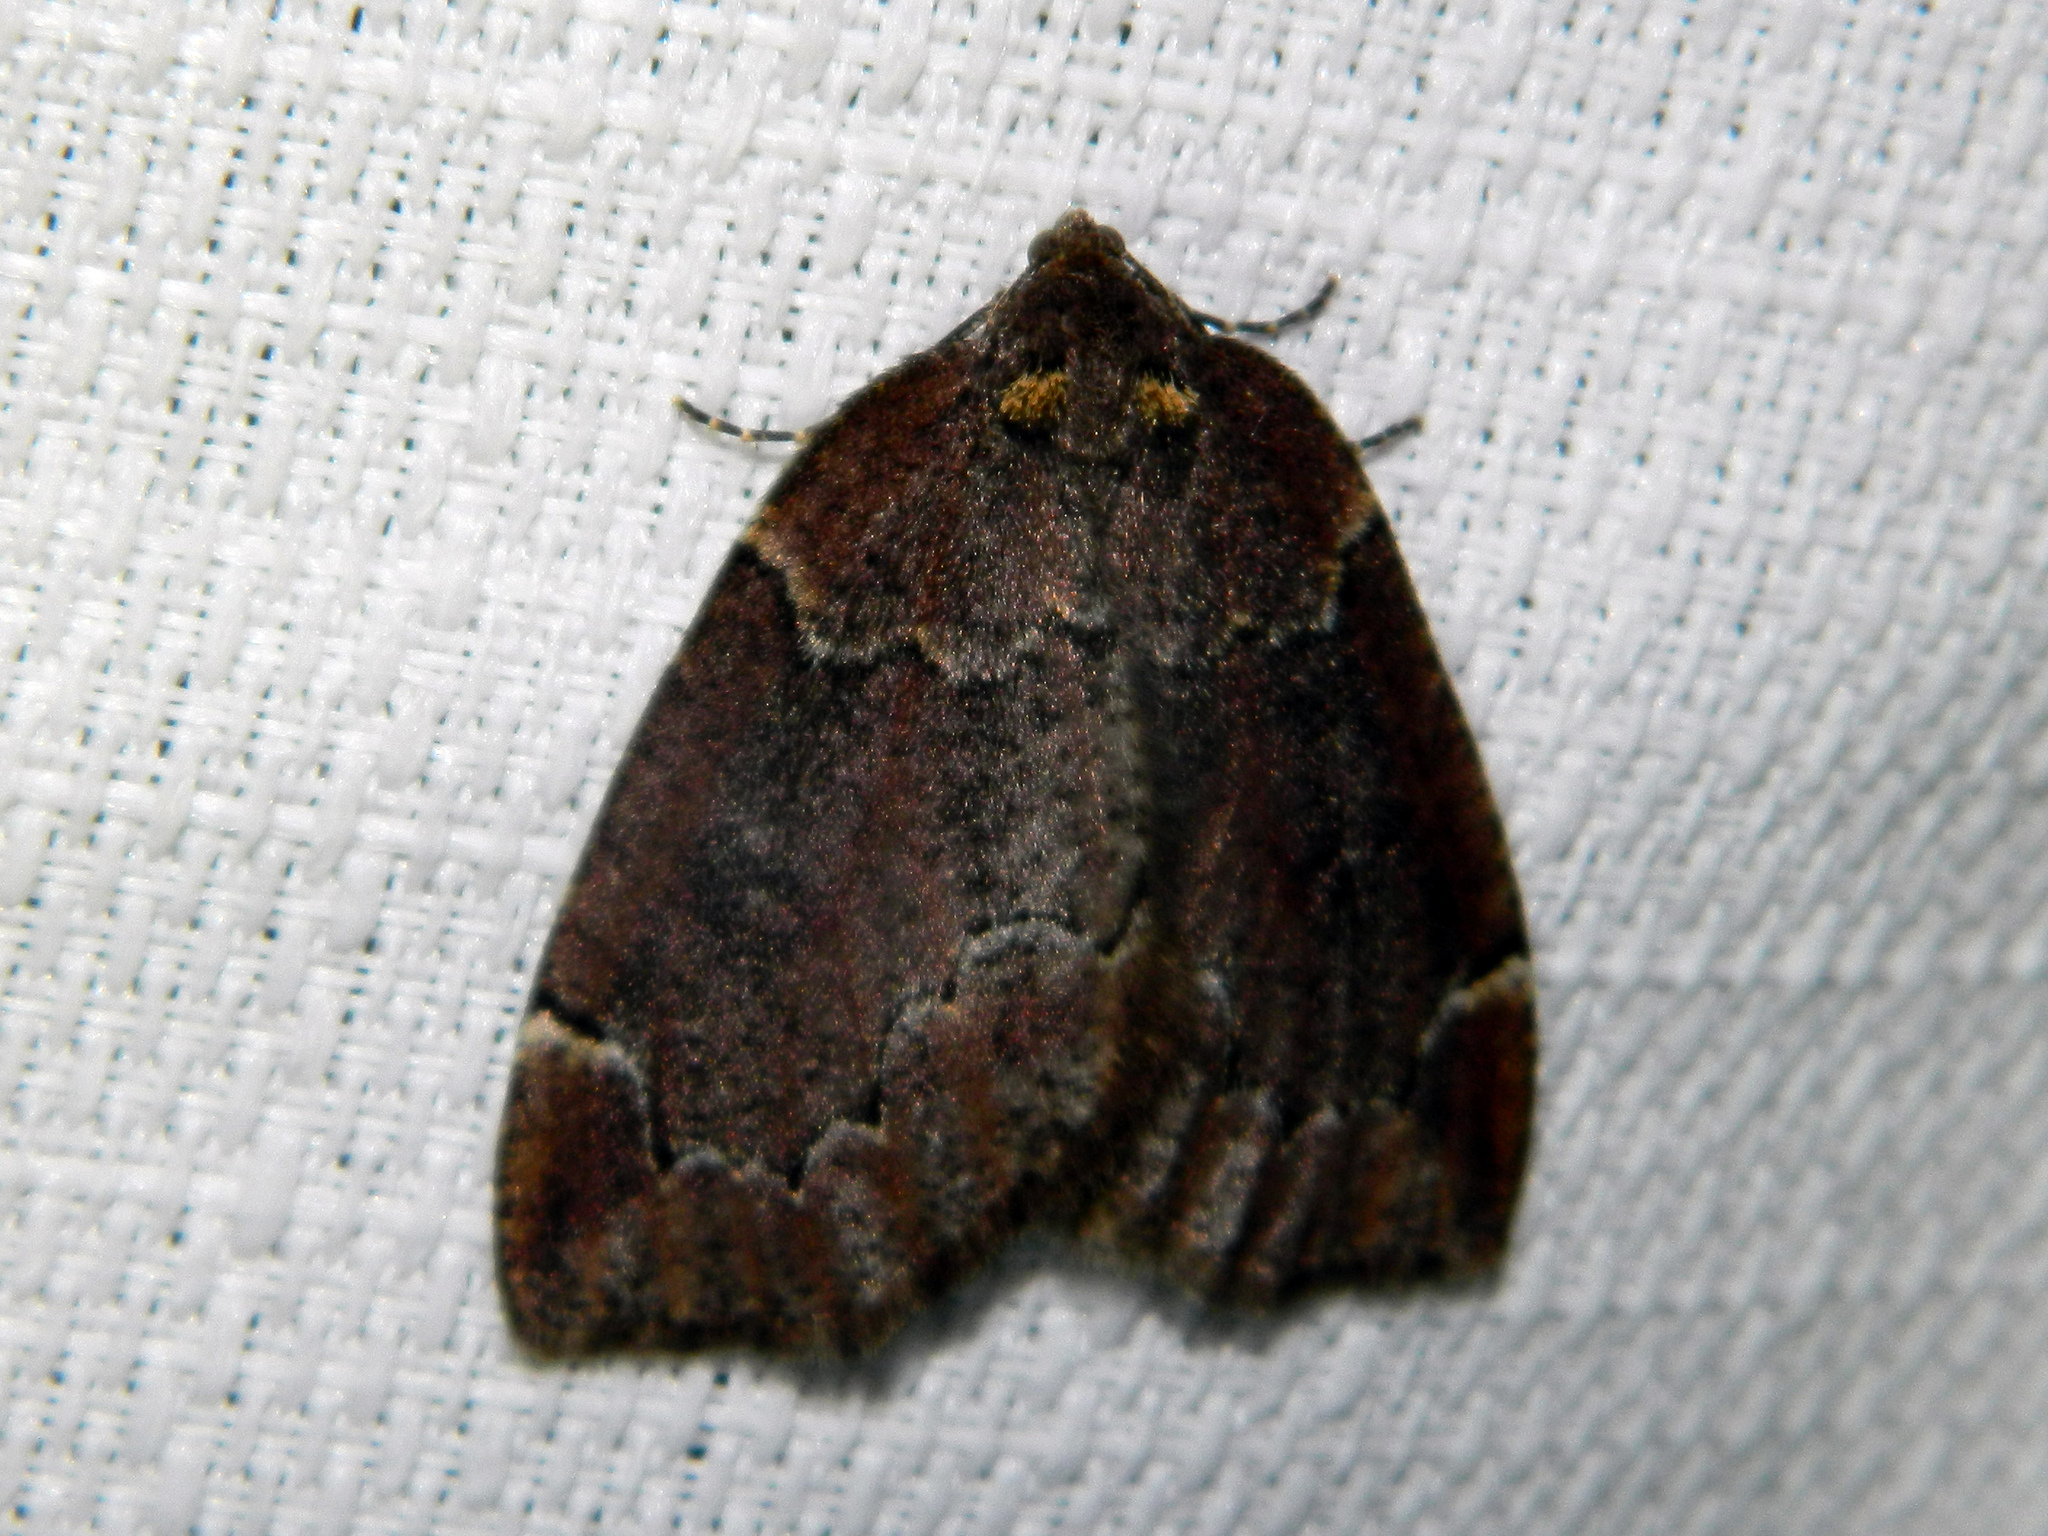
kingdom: Animalia
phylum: Arthropoda
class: Insecta
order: Lepidoptera
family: Geometridae
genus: Spodolepis
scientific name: Spodolepis substriataria
